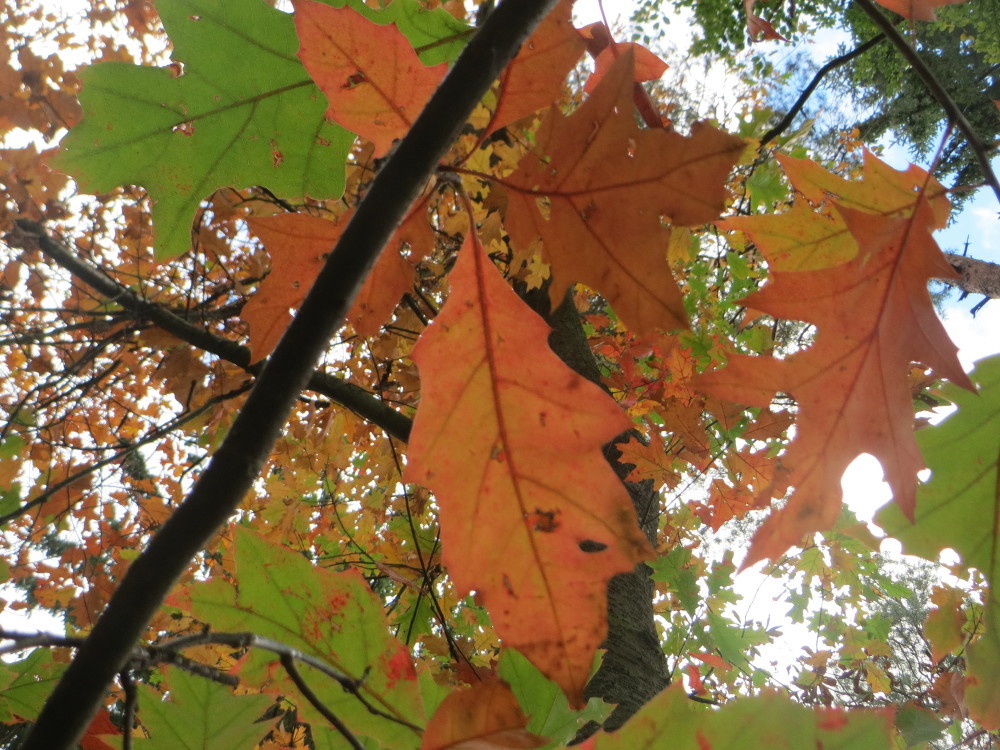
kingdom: Plantae
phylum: Tracheophyta
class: Magnoliopsida
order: Fagales
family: Fagaceae
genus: Quercus
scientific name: Quercus rubra
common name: Red oak
